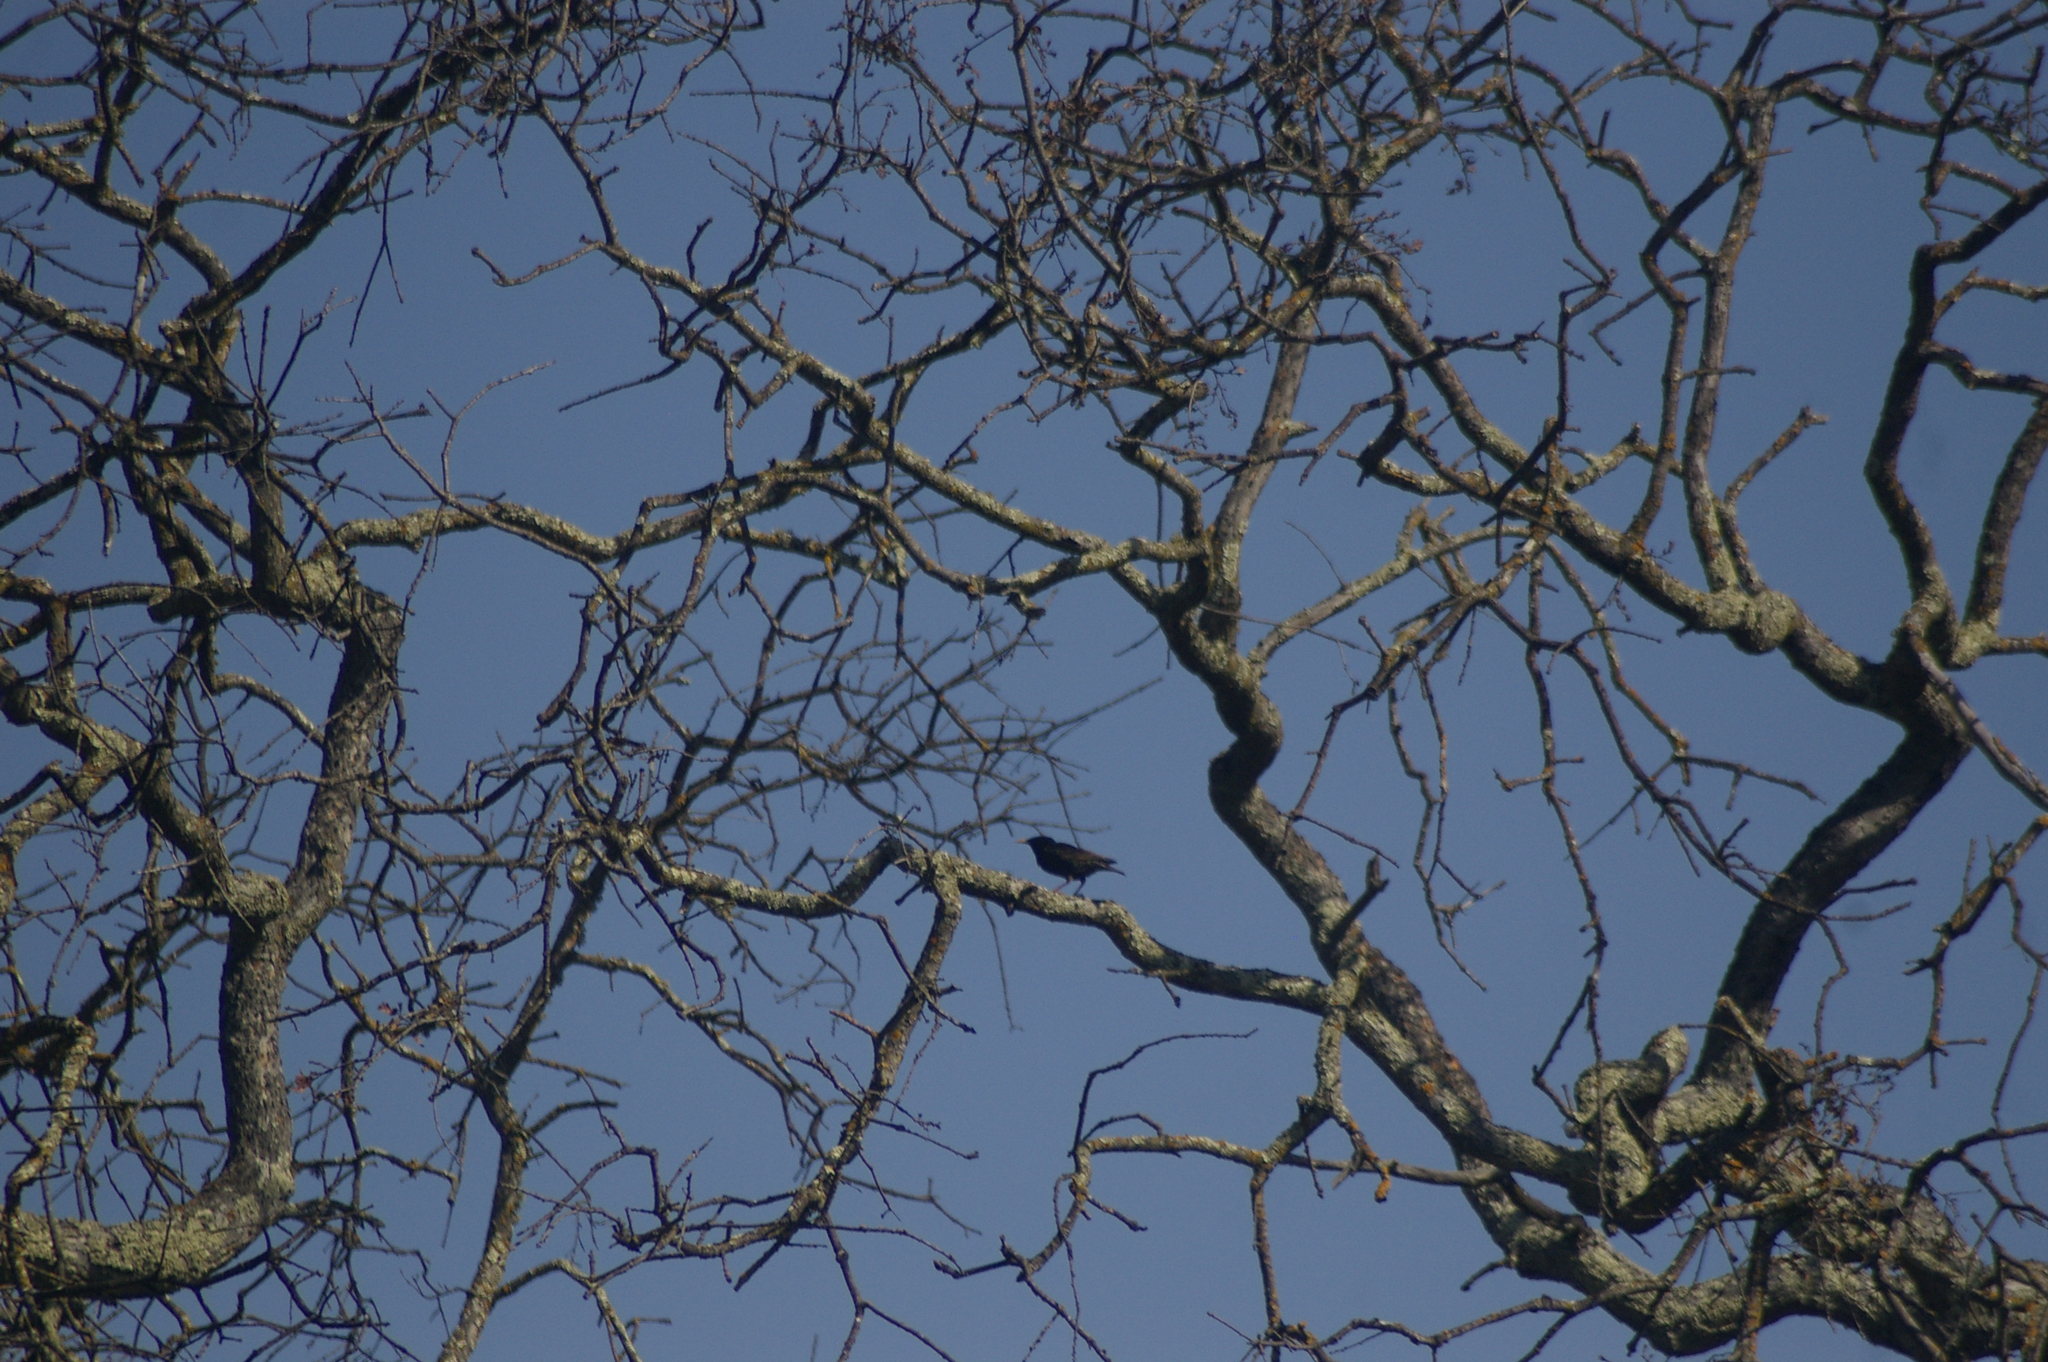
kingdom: Animalia
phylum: Chordata
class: Aves
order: Passeriformes
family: Sturnidae
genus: Sturnus
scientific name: Sturnus vulgaris
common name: Common starling
